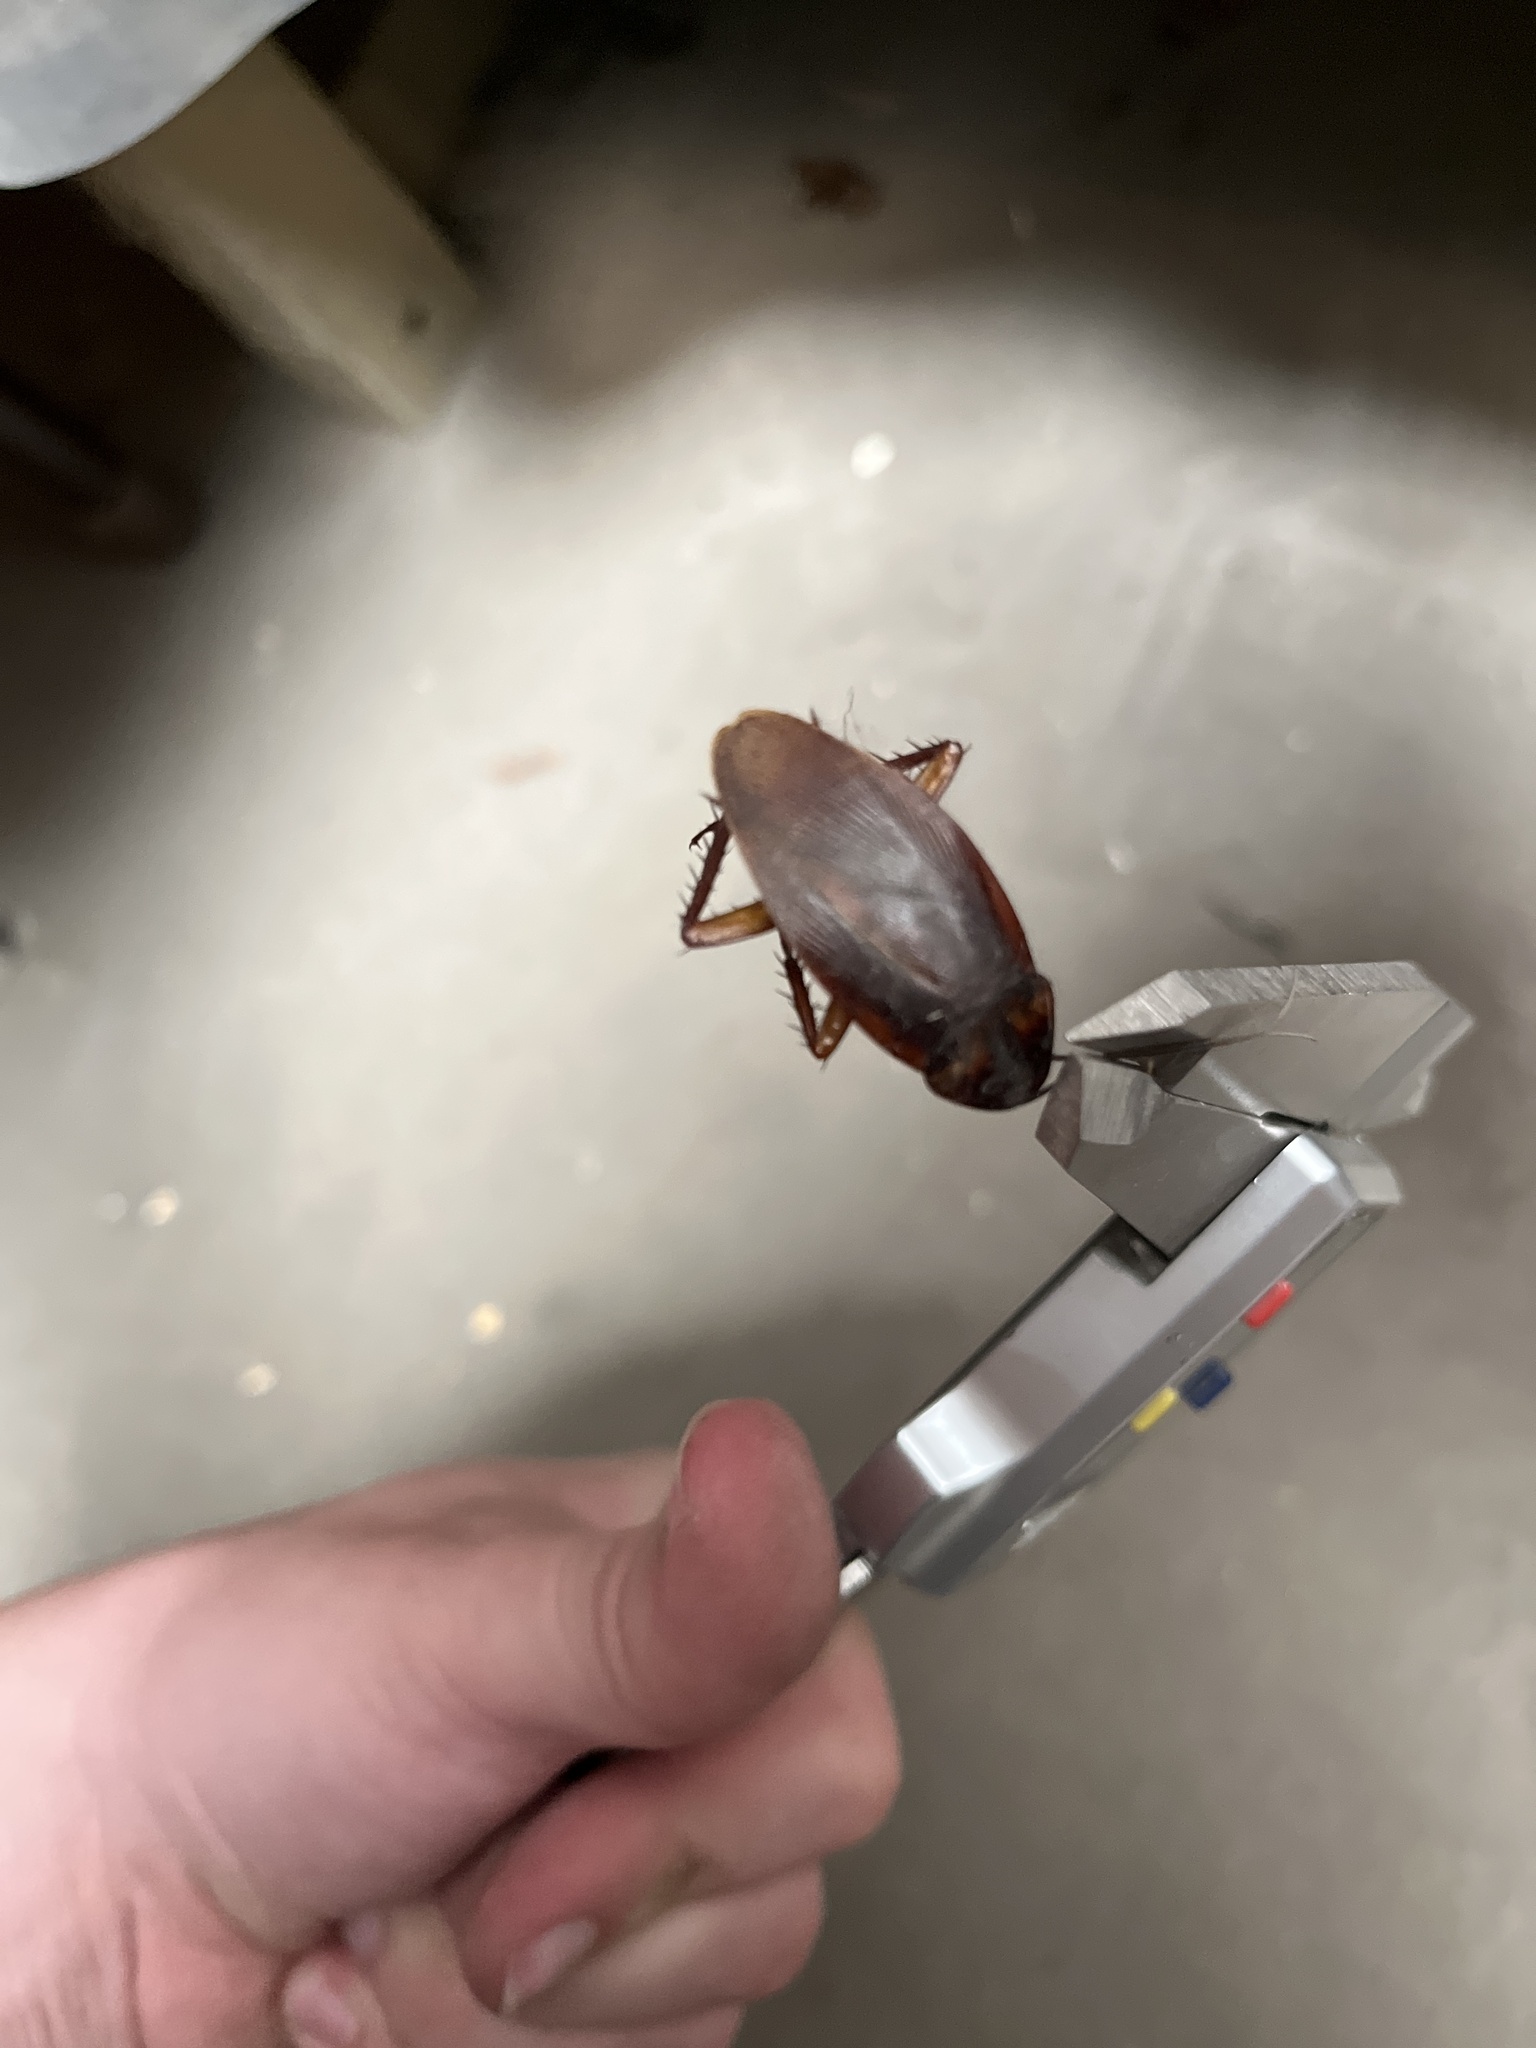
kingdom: Animalia
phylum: Arthropoda
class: Insecta
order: Blattodea
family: Blattidae
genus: Periplaneta
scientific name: Periplaneta fuliginosa
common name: Smokeybrown cockroad
